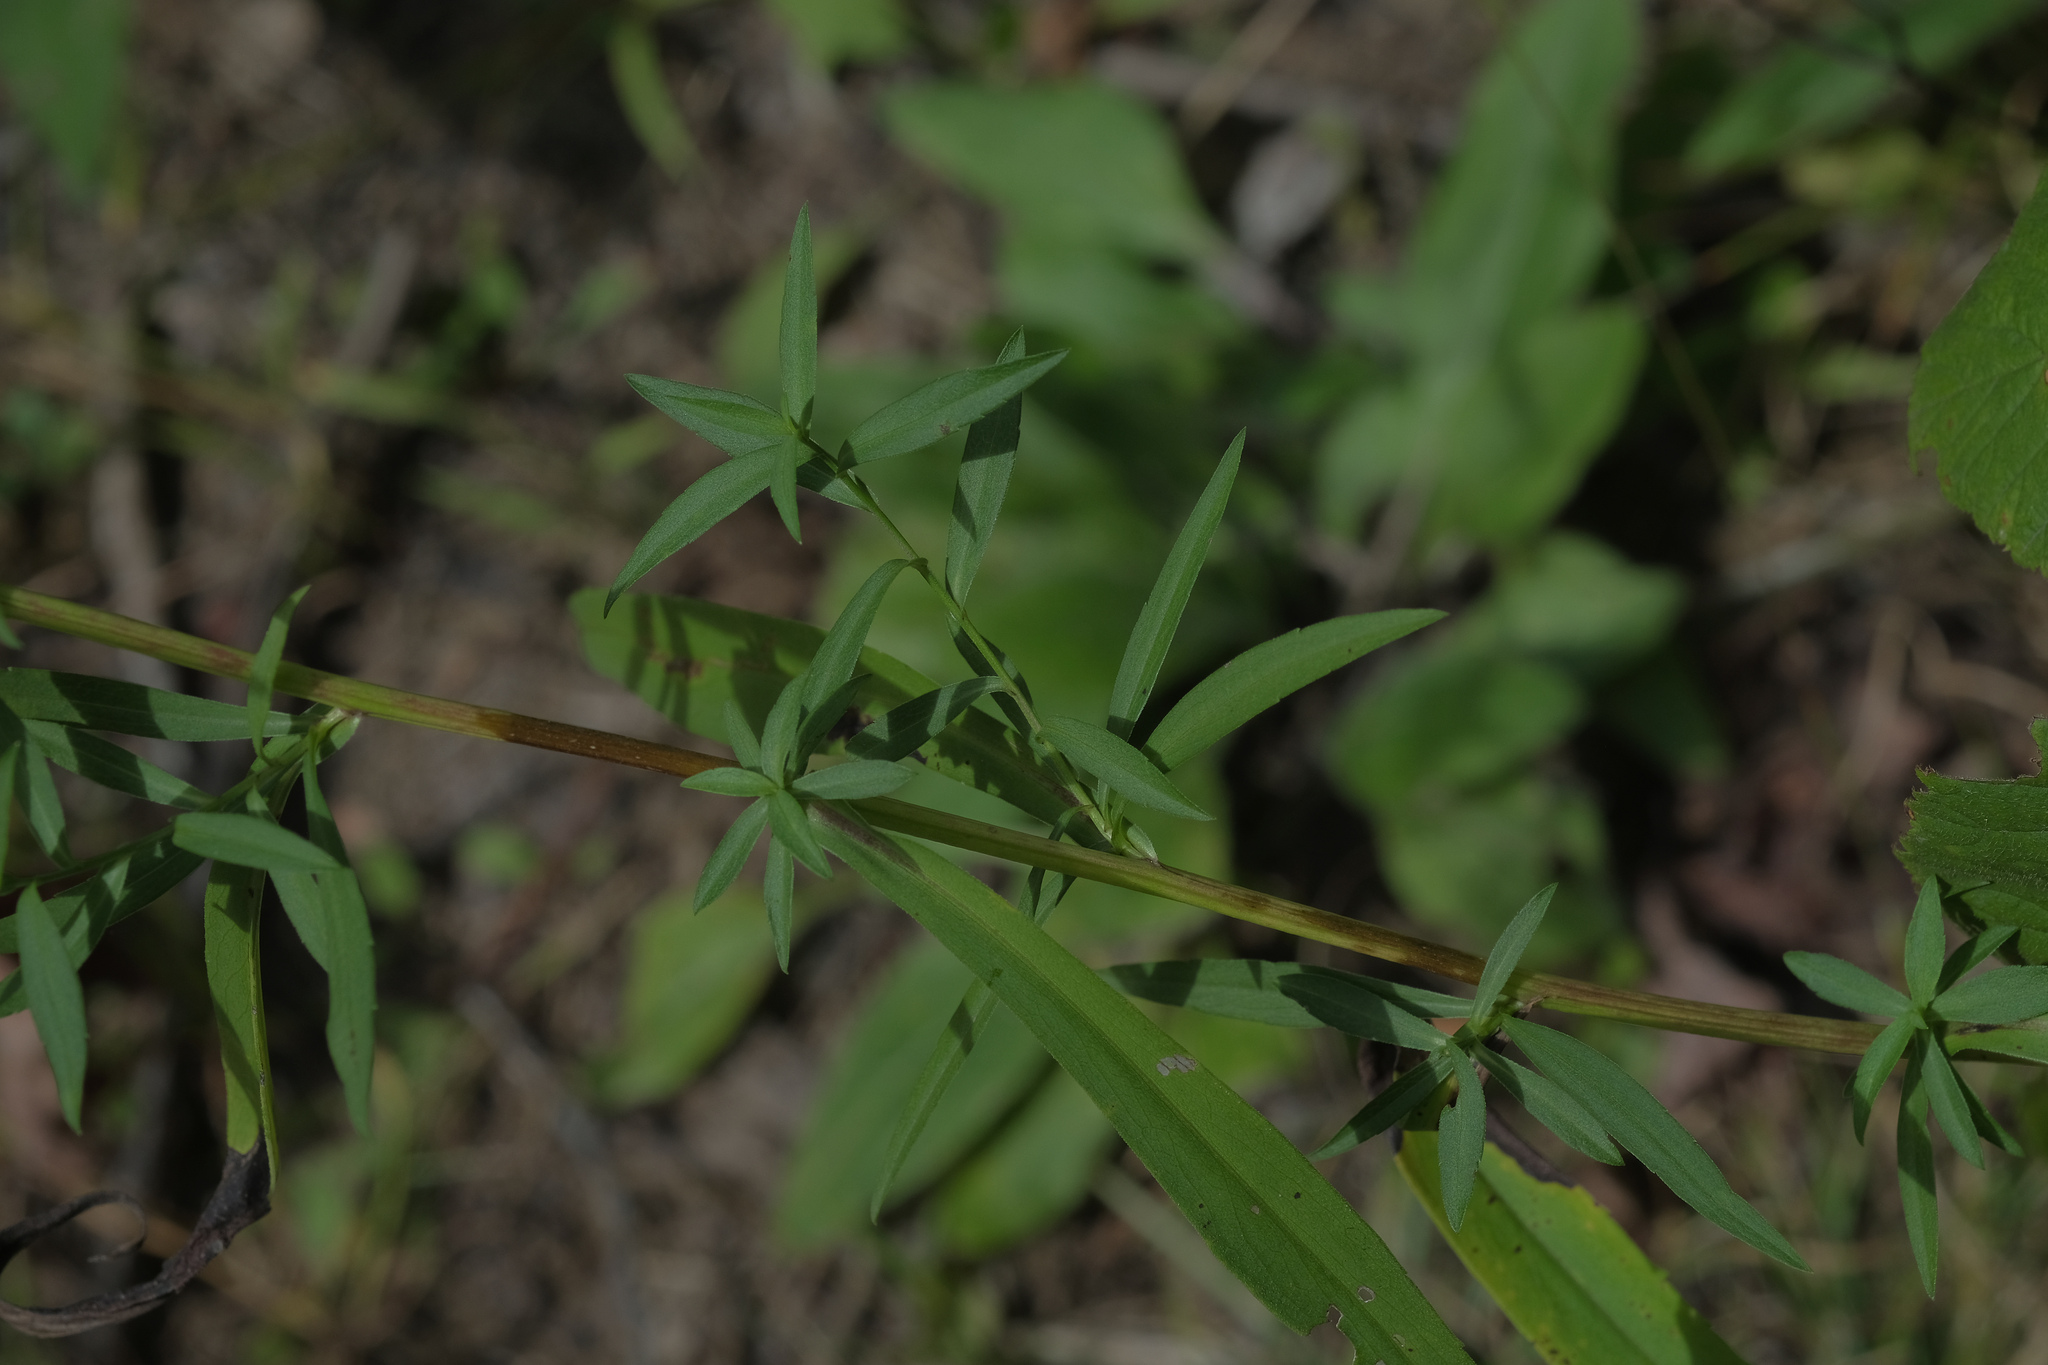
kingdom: Plantae
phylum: Tracheophyta
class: Magnoliopsida
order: Asterales
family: Asteraceae
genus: Symphyotrichum
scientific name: Symphyotrichum lanceolatum
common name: Panicled aster
